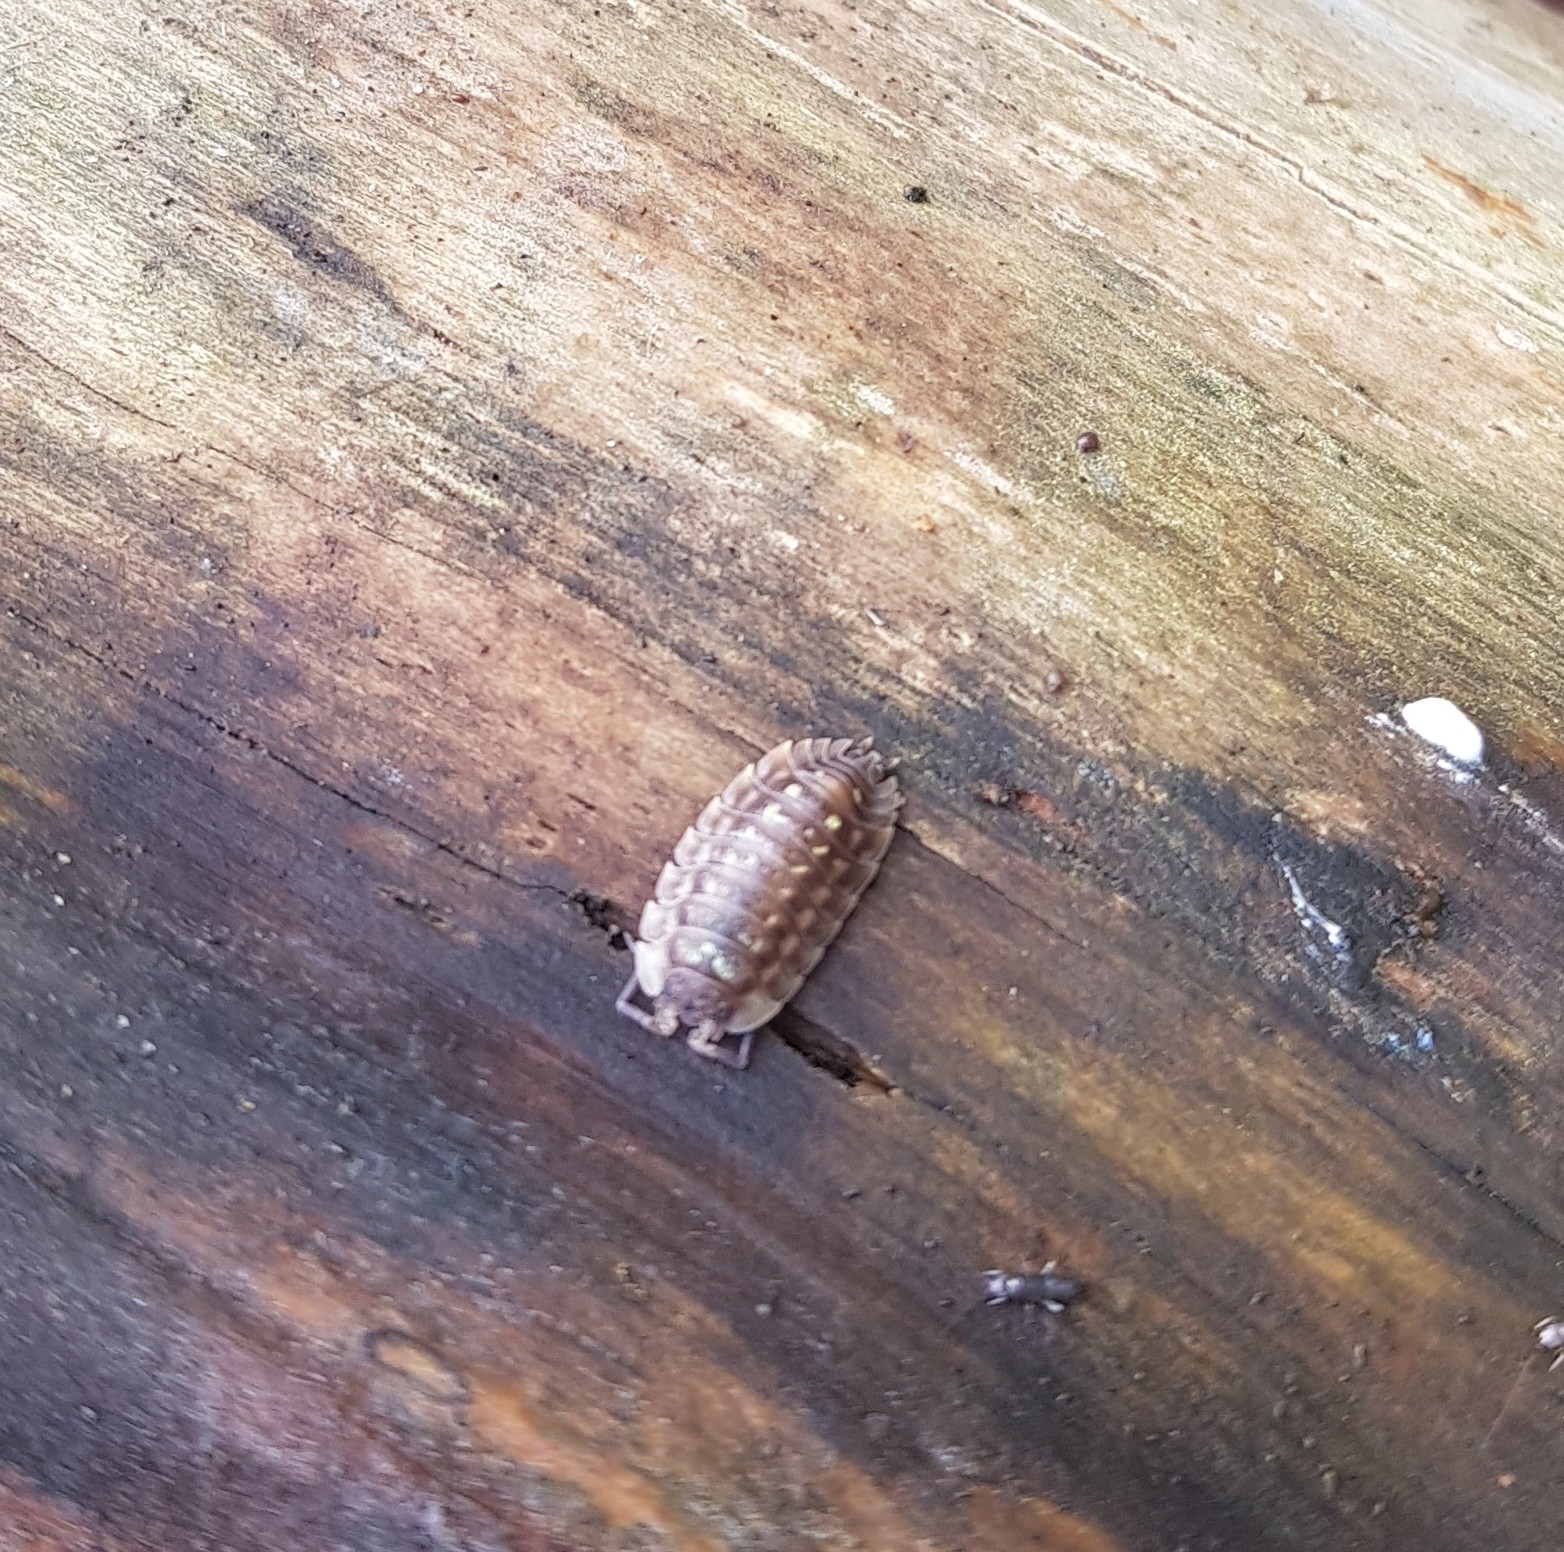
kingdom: Animalia
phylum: Arthropoda
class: Malacostraca
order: Isopoda
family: Oniscidae
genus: Oniscus
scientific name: Oniscus asellus
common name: Common shiny woodlouse
